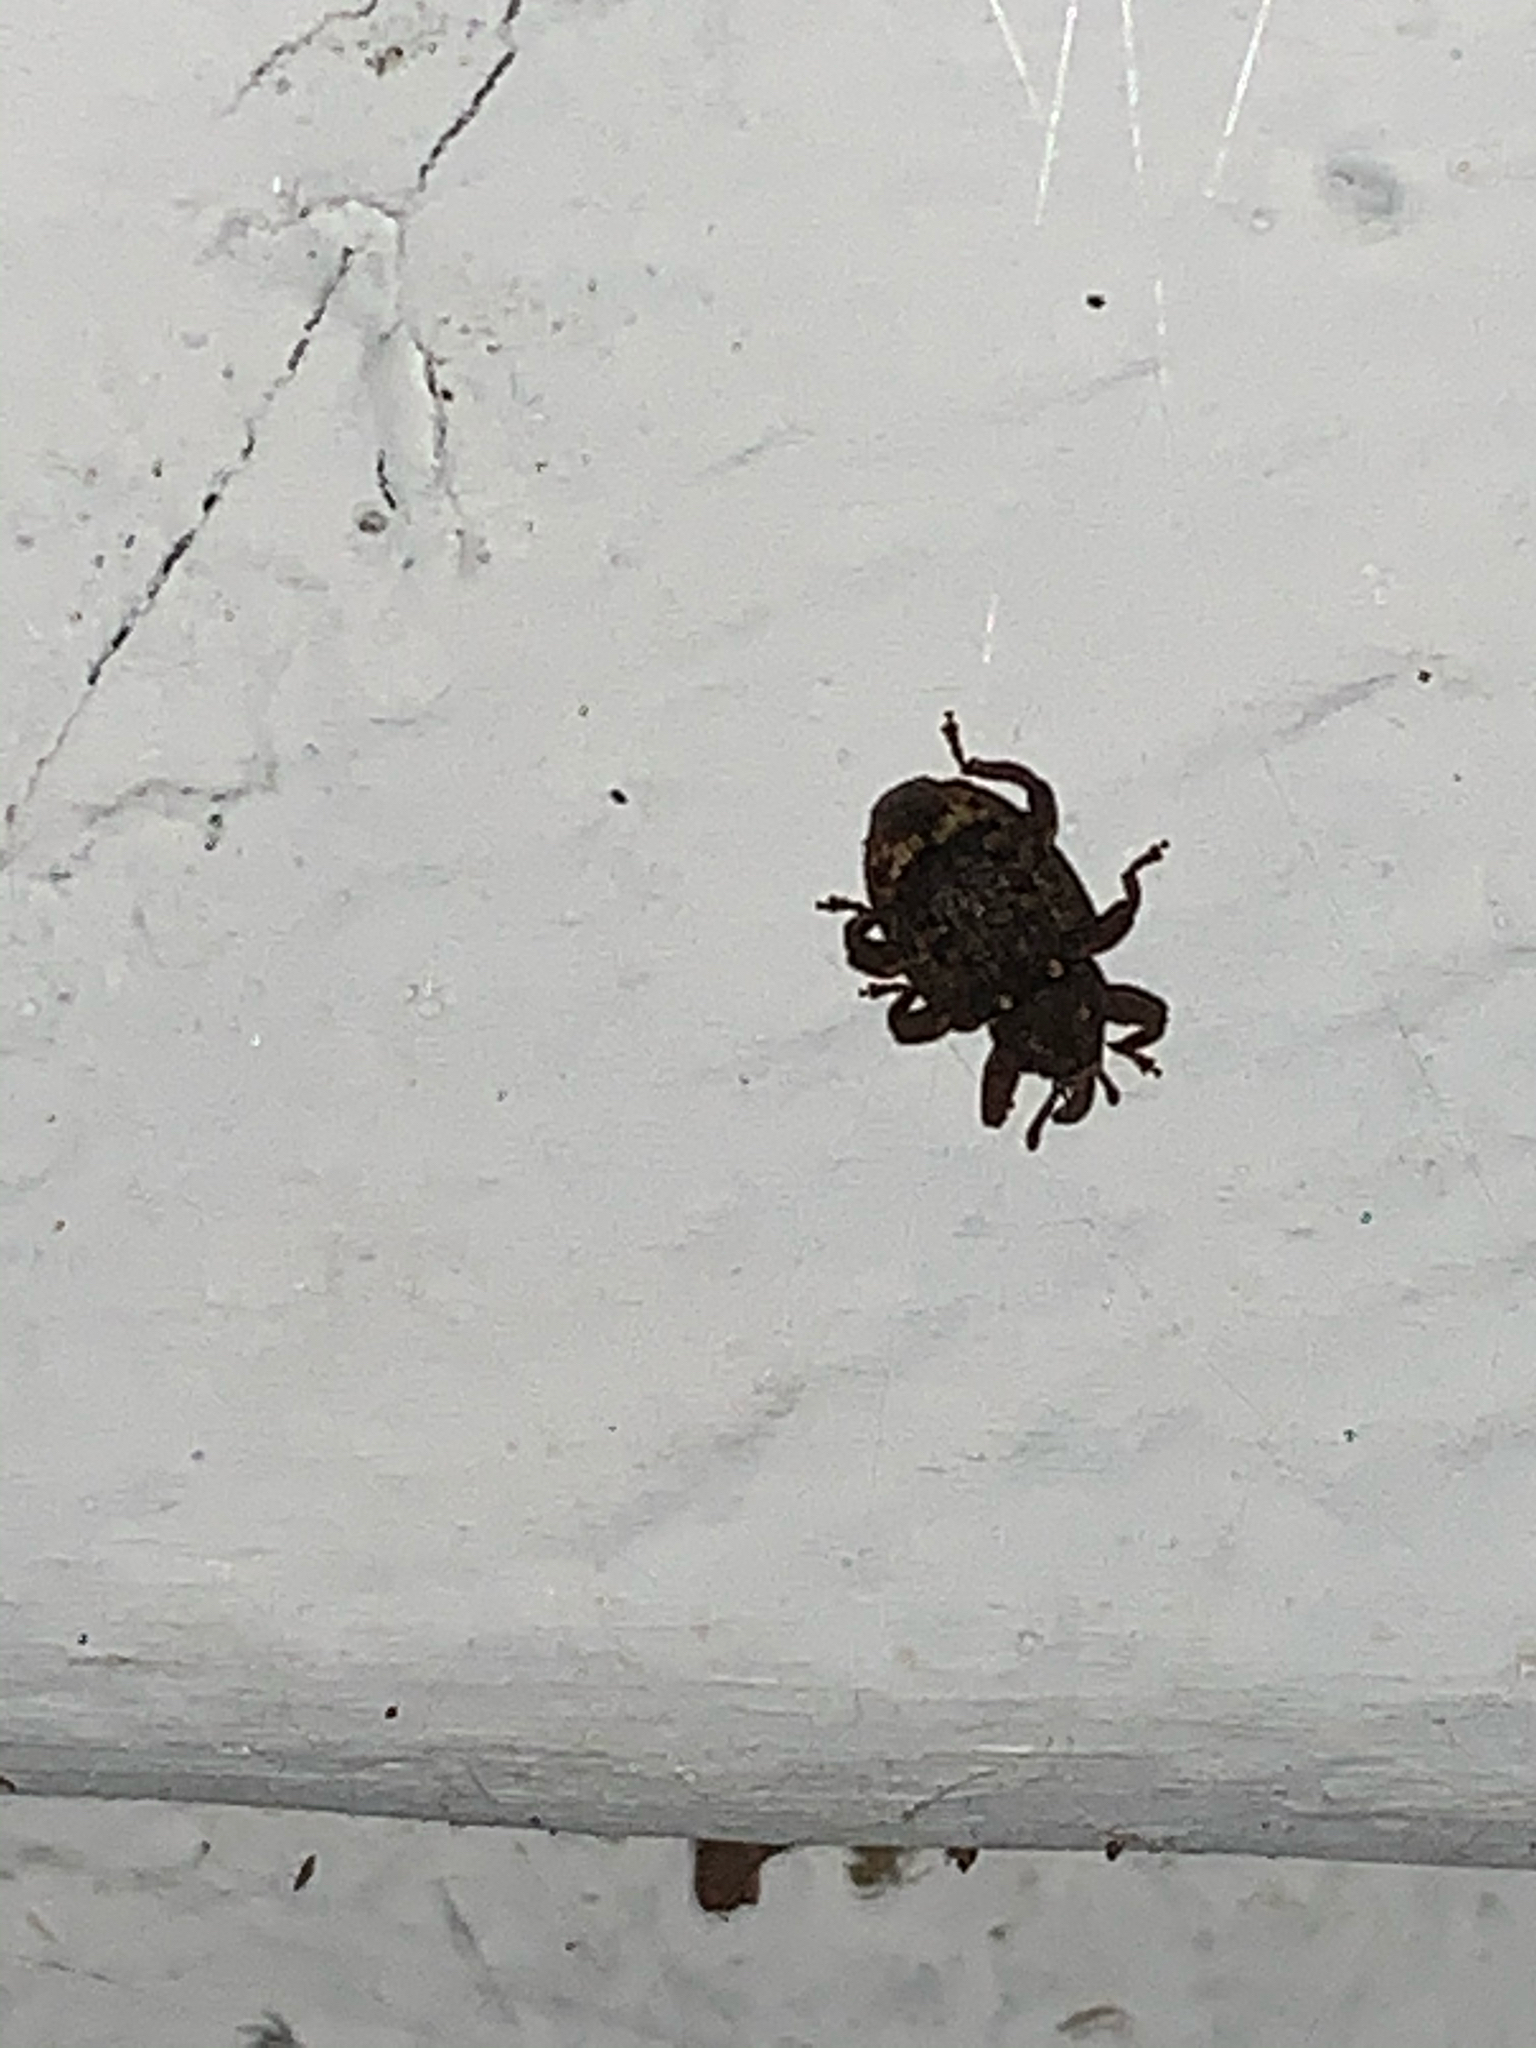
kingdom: Animalia
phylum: Arthropoda
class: Insecta
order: Coleoptera
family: Curculionidae
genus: Conotrachelus
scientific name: Conotrachelus posticatus
